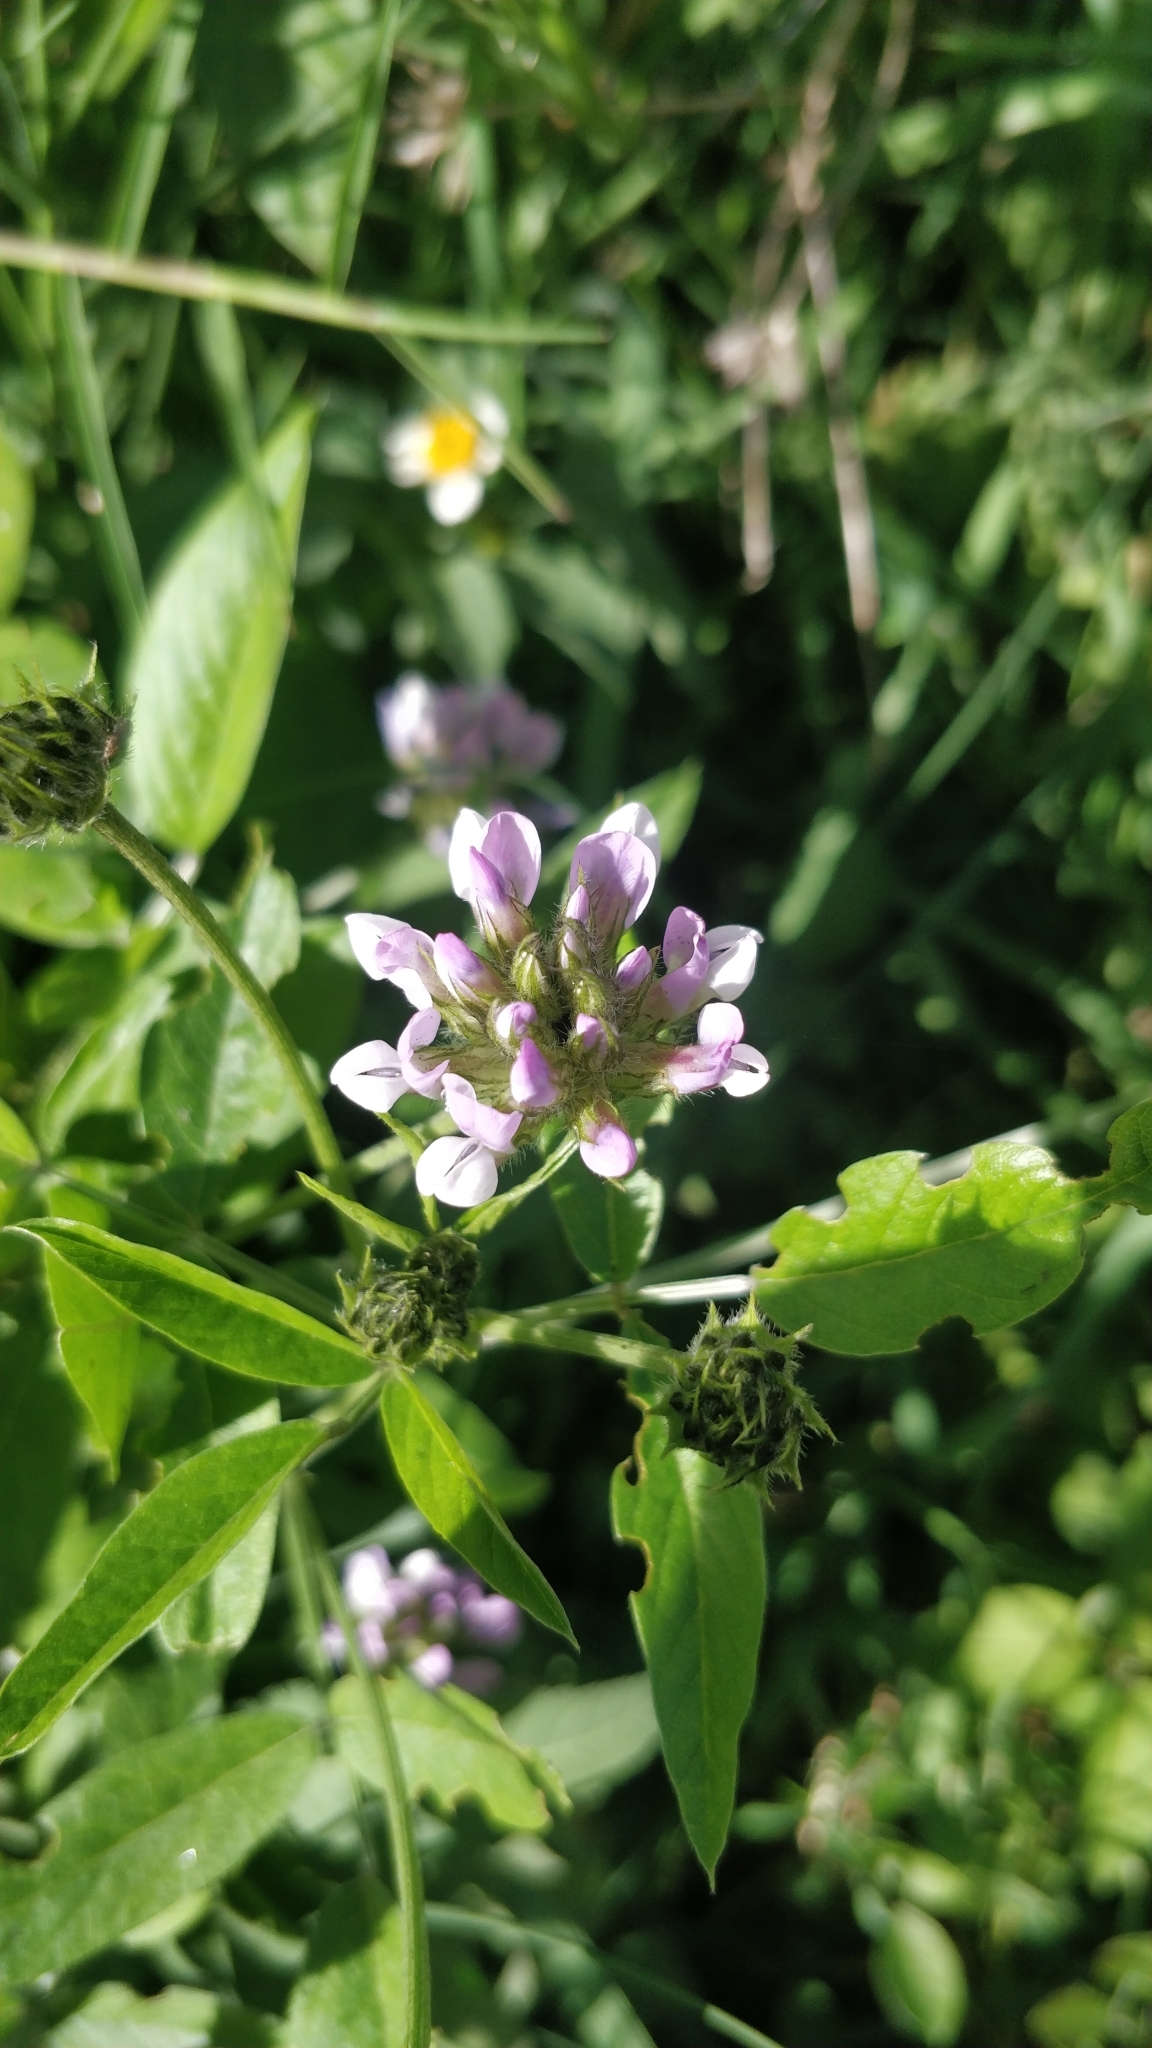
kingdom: Plantae
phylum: Tracheophyta
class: Magnoliopsida
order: Fabales
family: Fabaceae
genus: Bituminaria
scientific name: Bituminaria bituminosa
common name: Arabian pea
